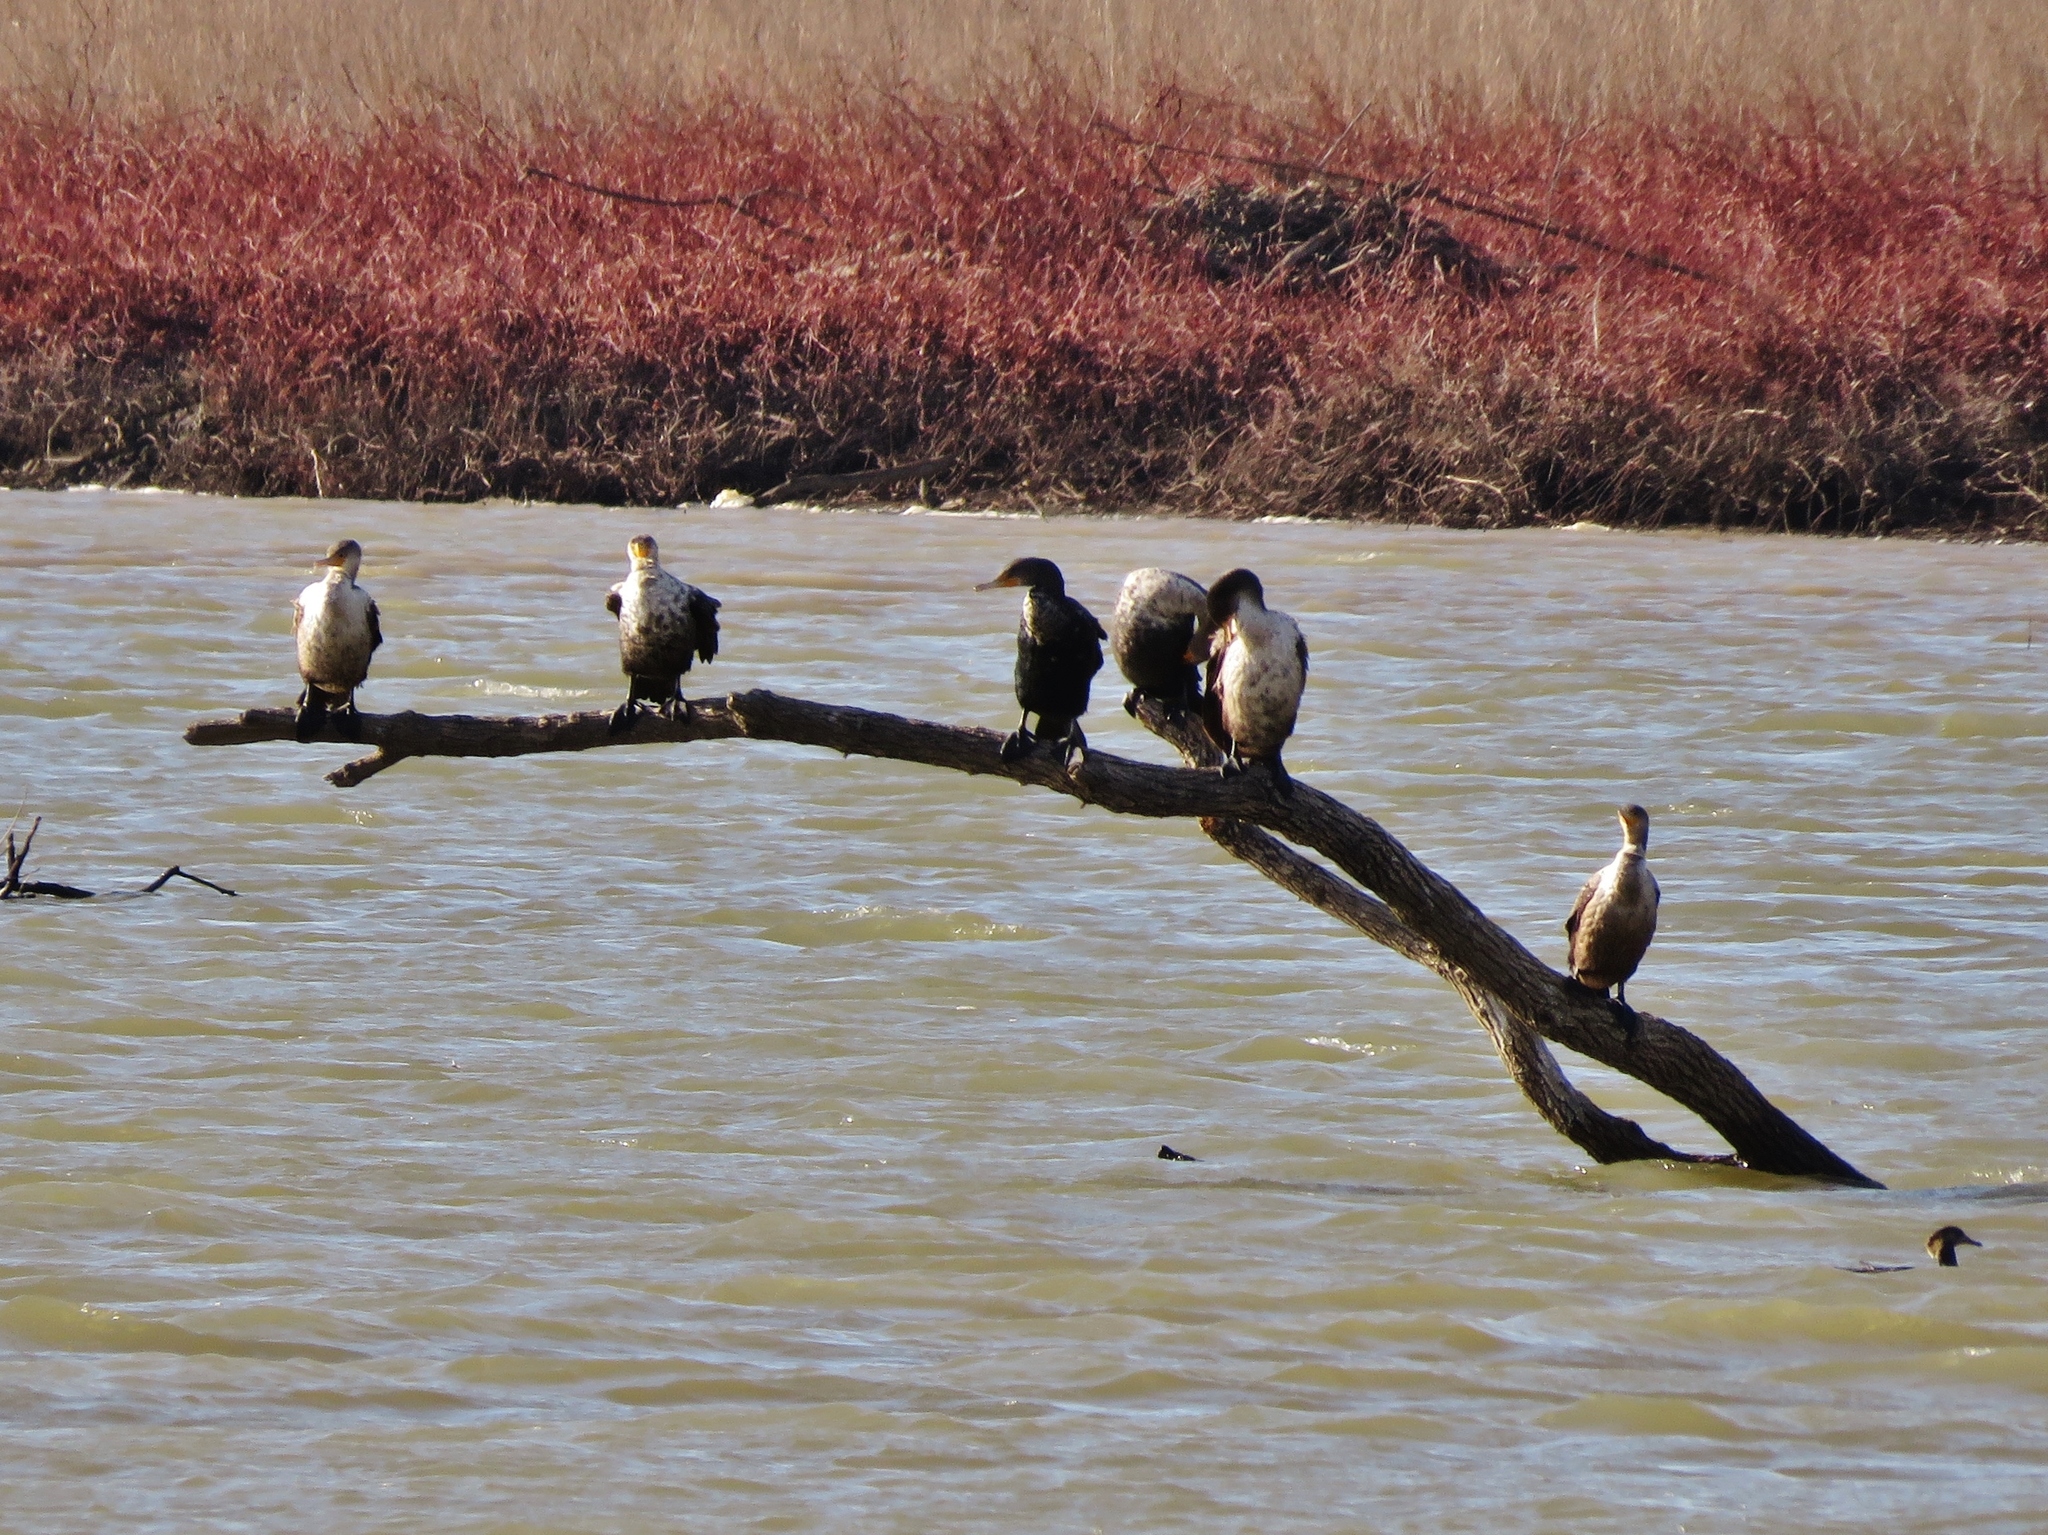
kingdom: Animalia
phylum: Chordata
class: Aves
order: Suliformes
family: Phalacrocoracidae
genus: Phalacrocorax
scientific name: Phalacrocorax auritus
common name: Double-crested cormorant
